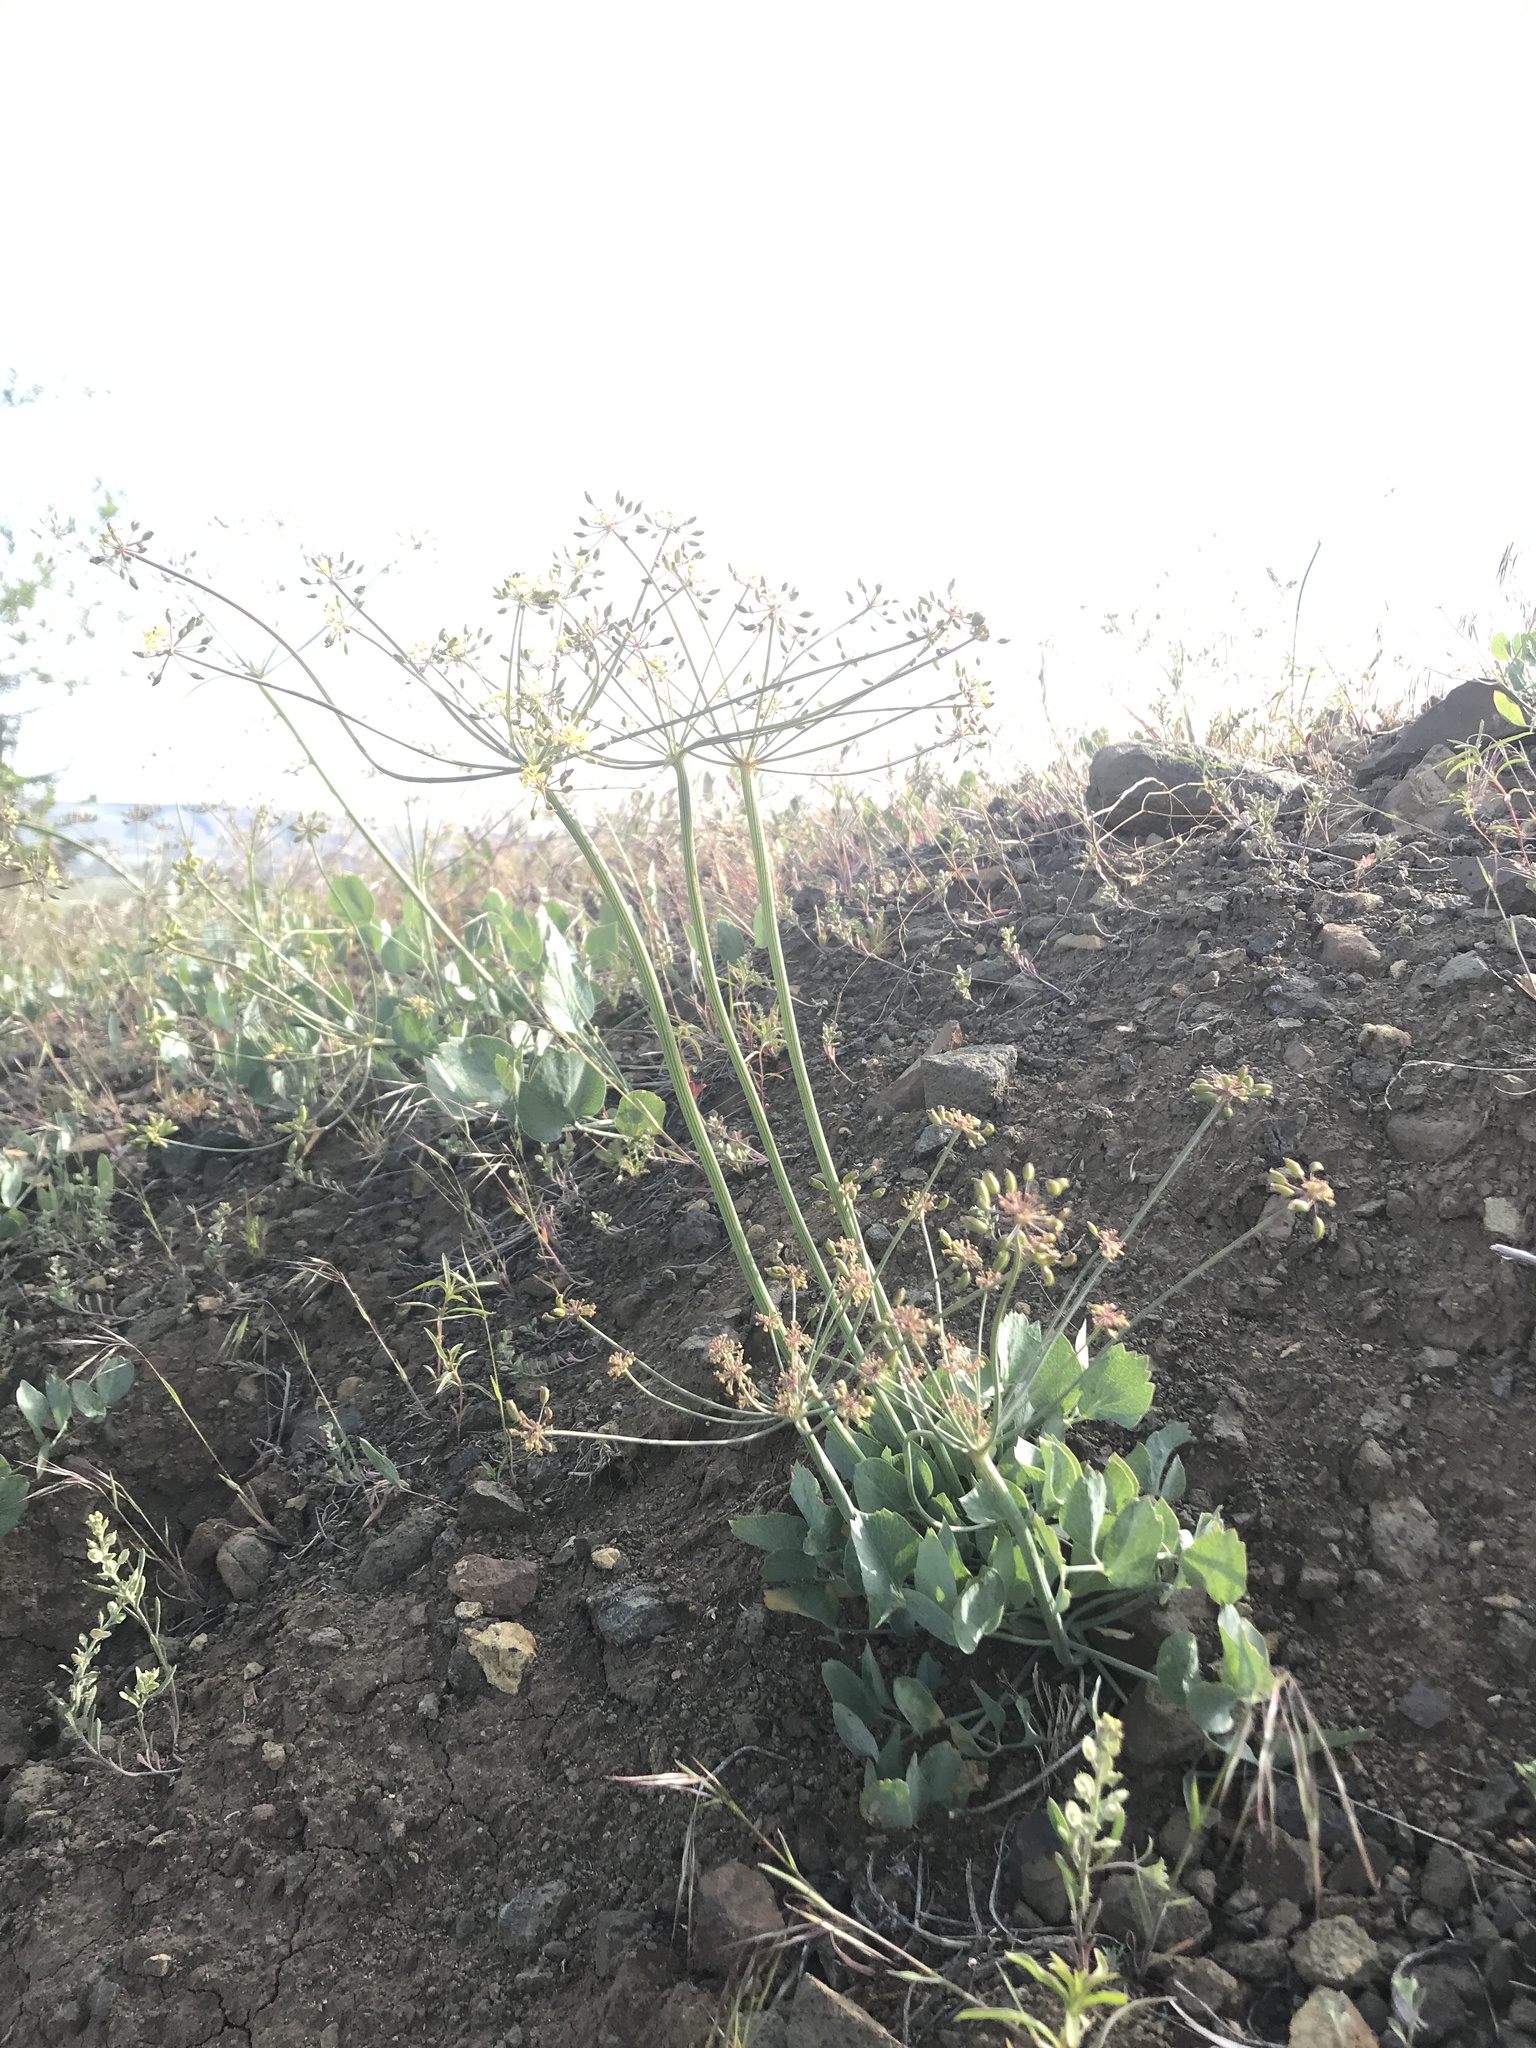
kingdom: Plantae
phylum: Tracheophyta
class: Magnoliopsida
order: Apiales
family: Apiaceae
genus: Lomatium
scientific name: Lomatium nudicaule
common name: Pestle lomatium
